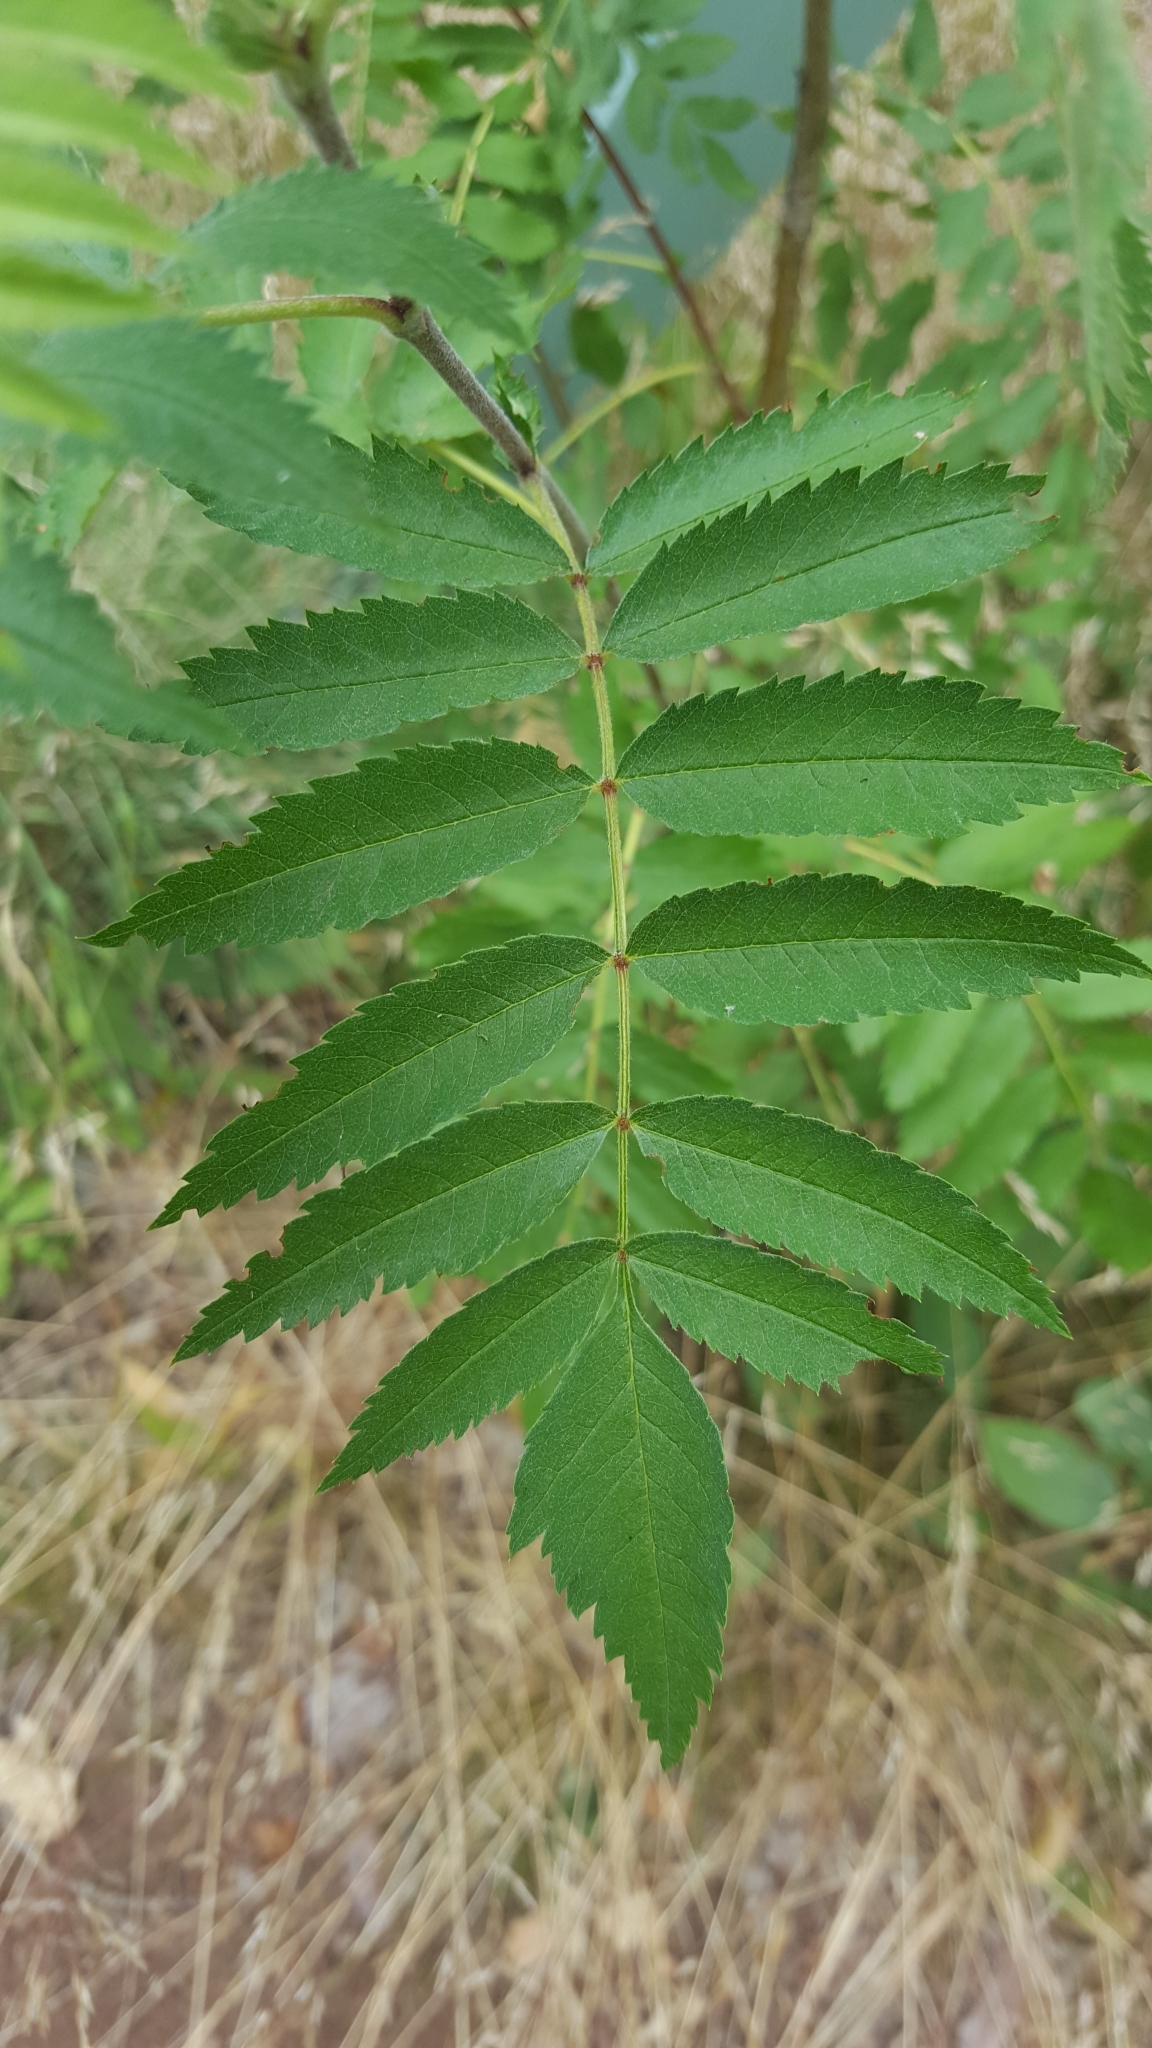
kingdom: Plantae
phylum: Tracheophyta
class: Magnoliopsida
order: Rosales
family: Rosaceae
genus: Sorbus
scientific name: Sorbus aucuparia
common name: Rowan
